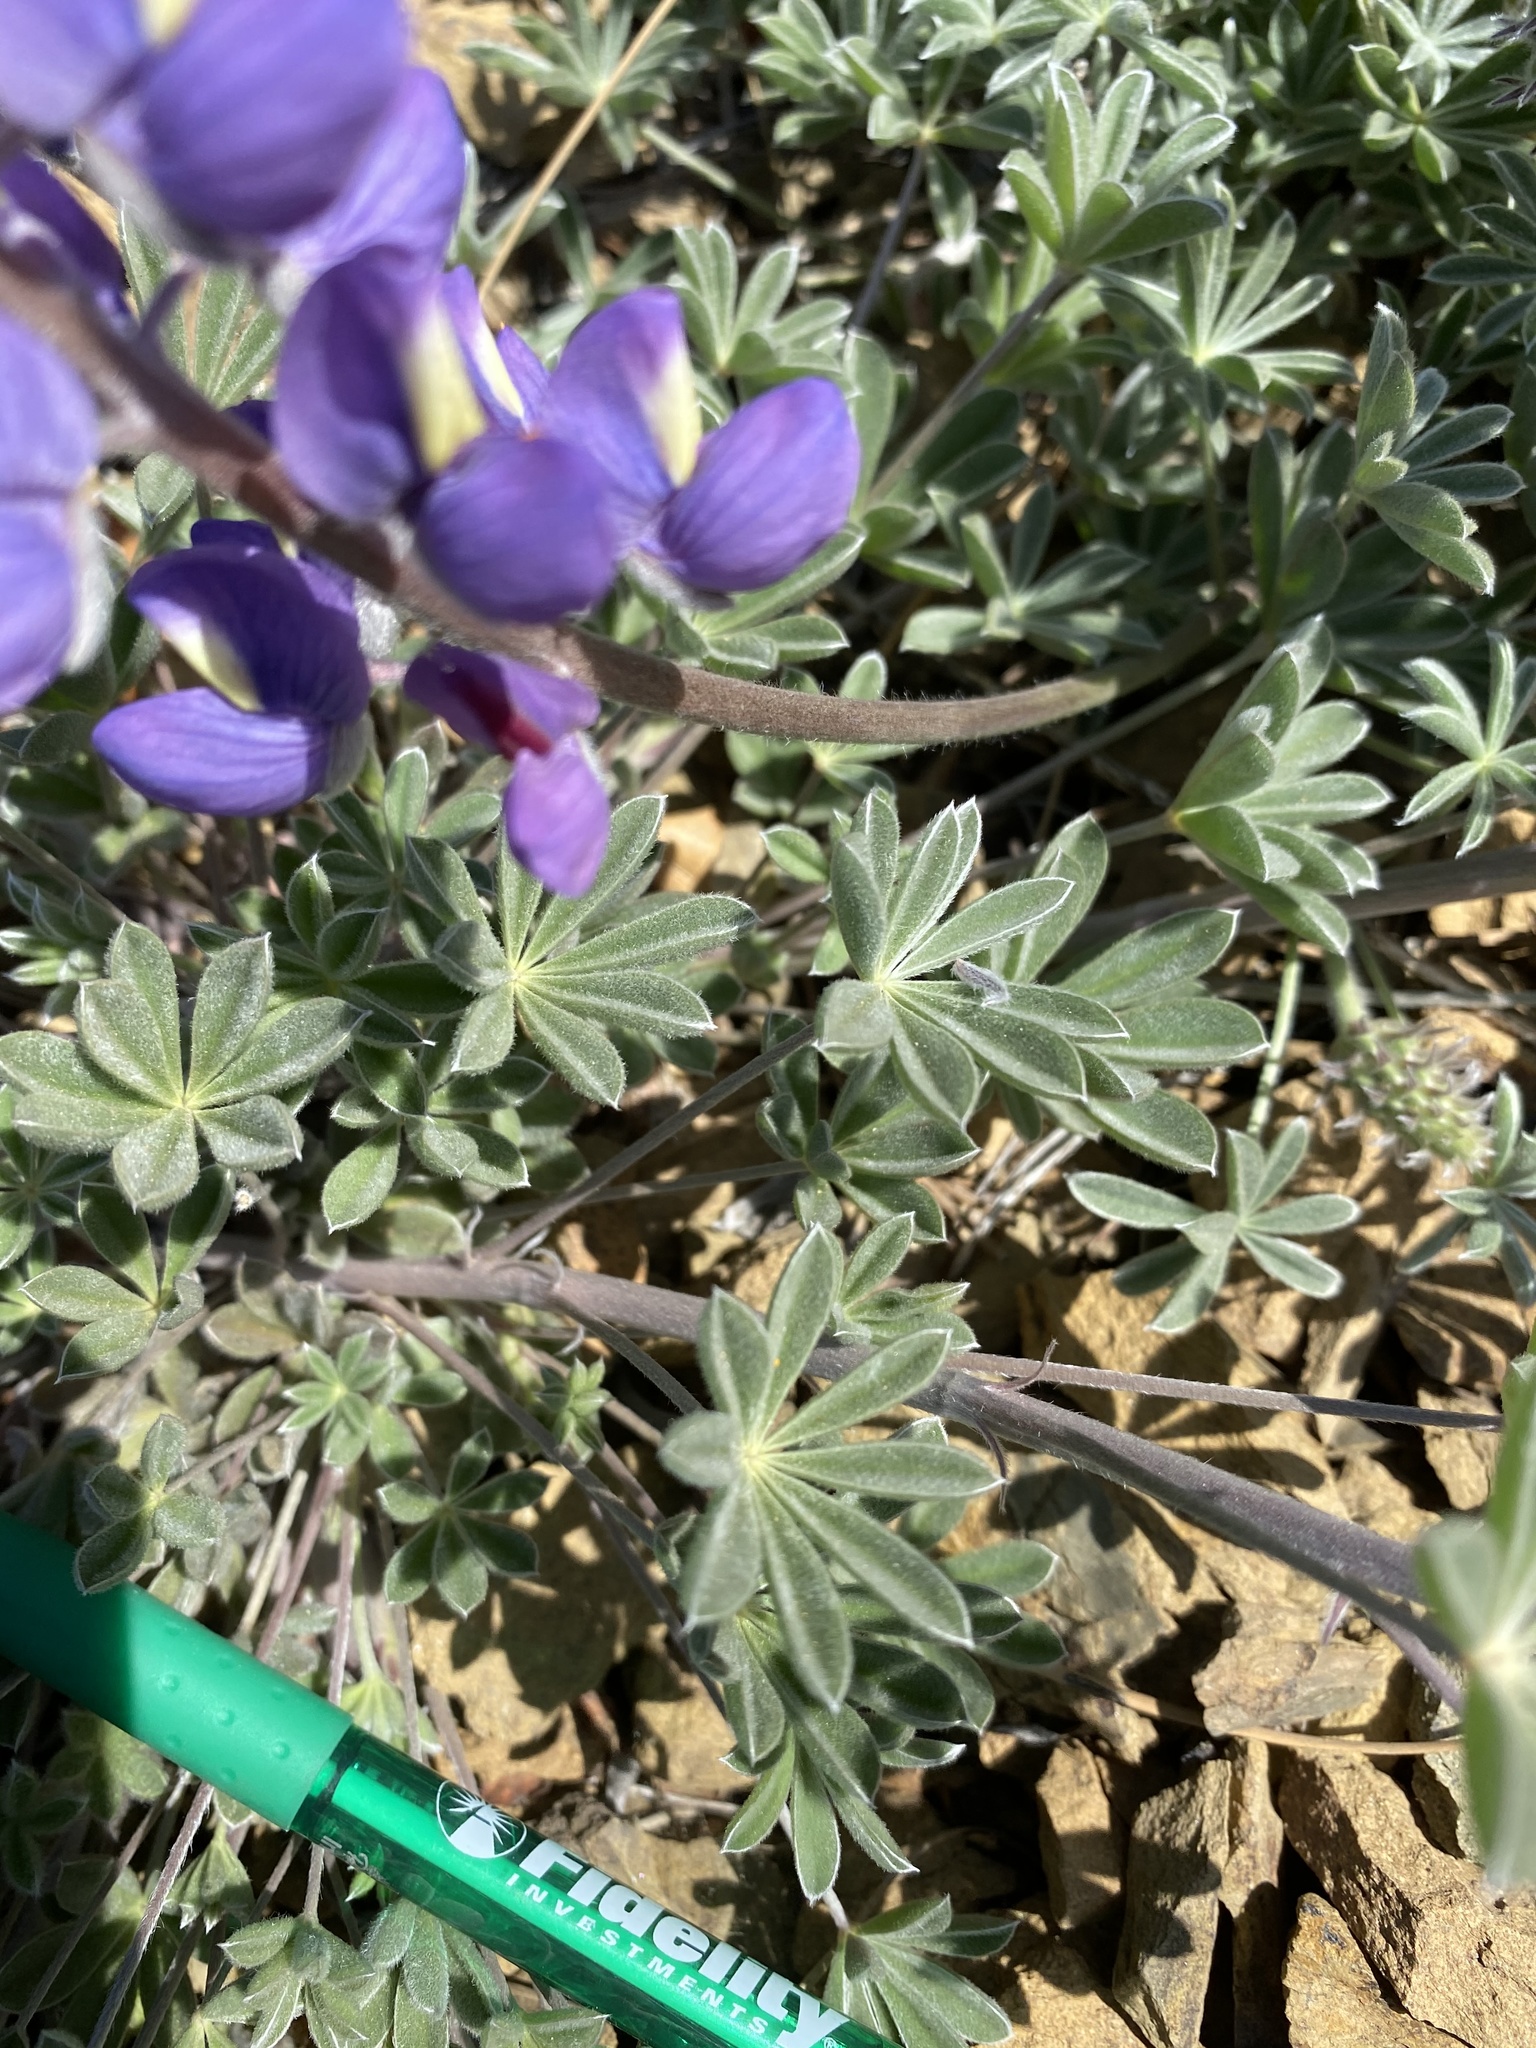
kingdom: Plantae
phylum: Tracheophyta
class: Magnoliopsida
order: Fabales
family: Fabaceae
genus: Lupinus
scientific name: Lupinus albifrons
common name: Foothill lupine
